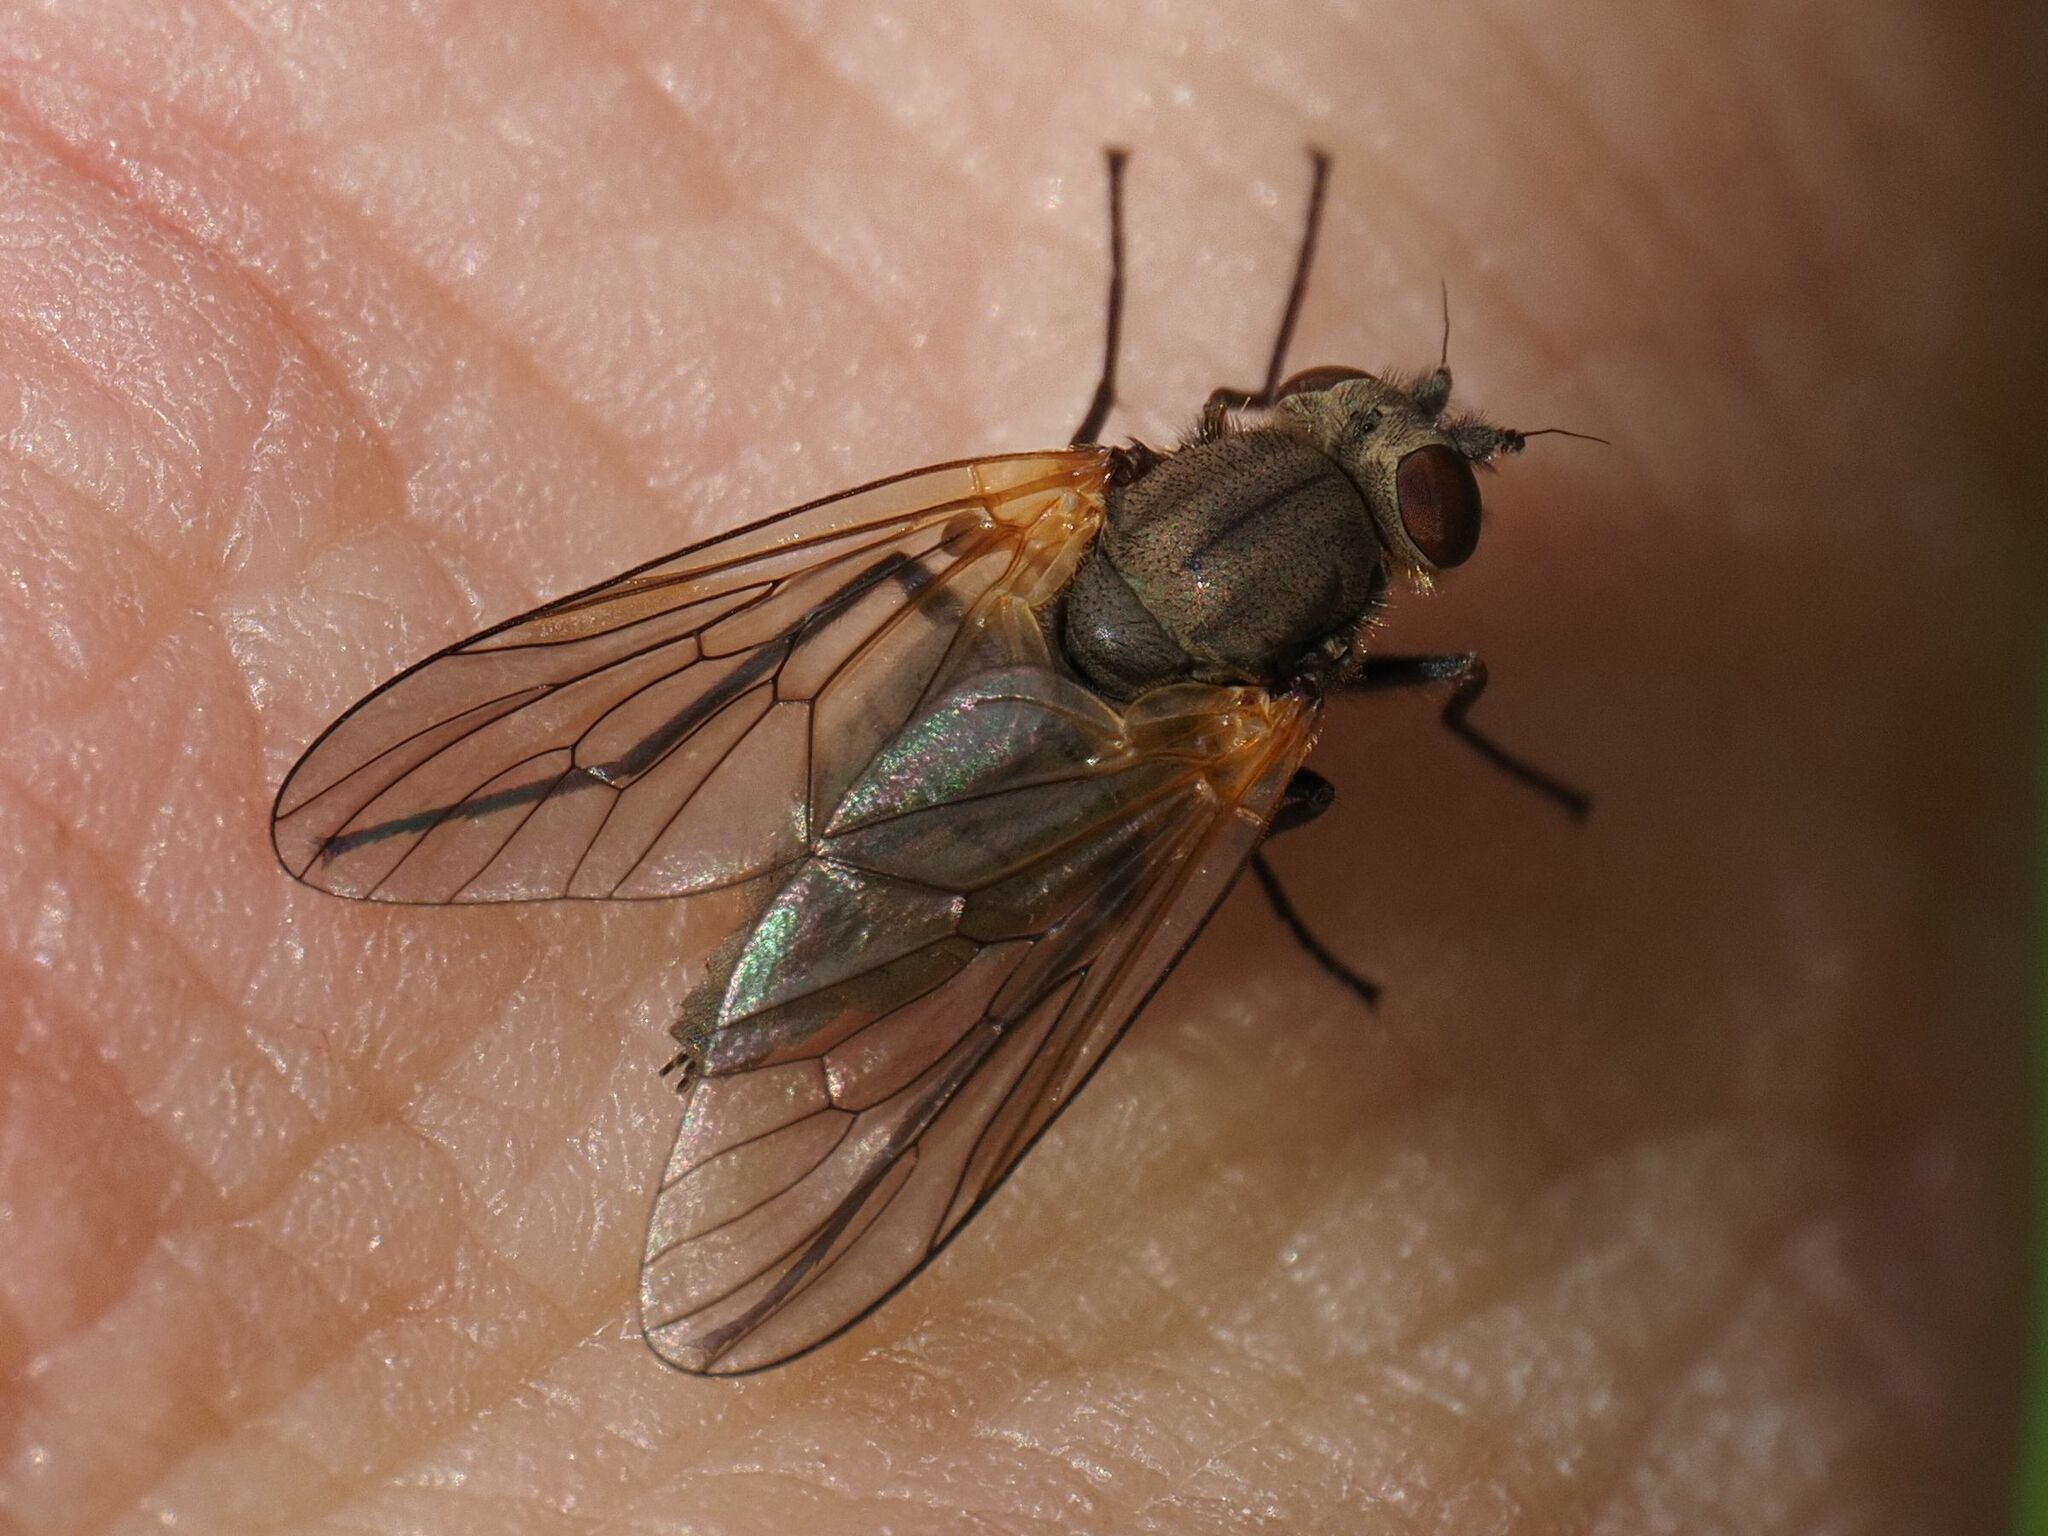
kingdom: Animalia
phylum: Arthropoda
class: Insecta
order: Diptera
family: Rhagionidae
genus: Symphoromyia
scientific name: Symphoromyia crassicornis
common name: Moorland snipefly
